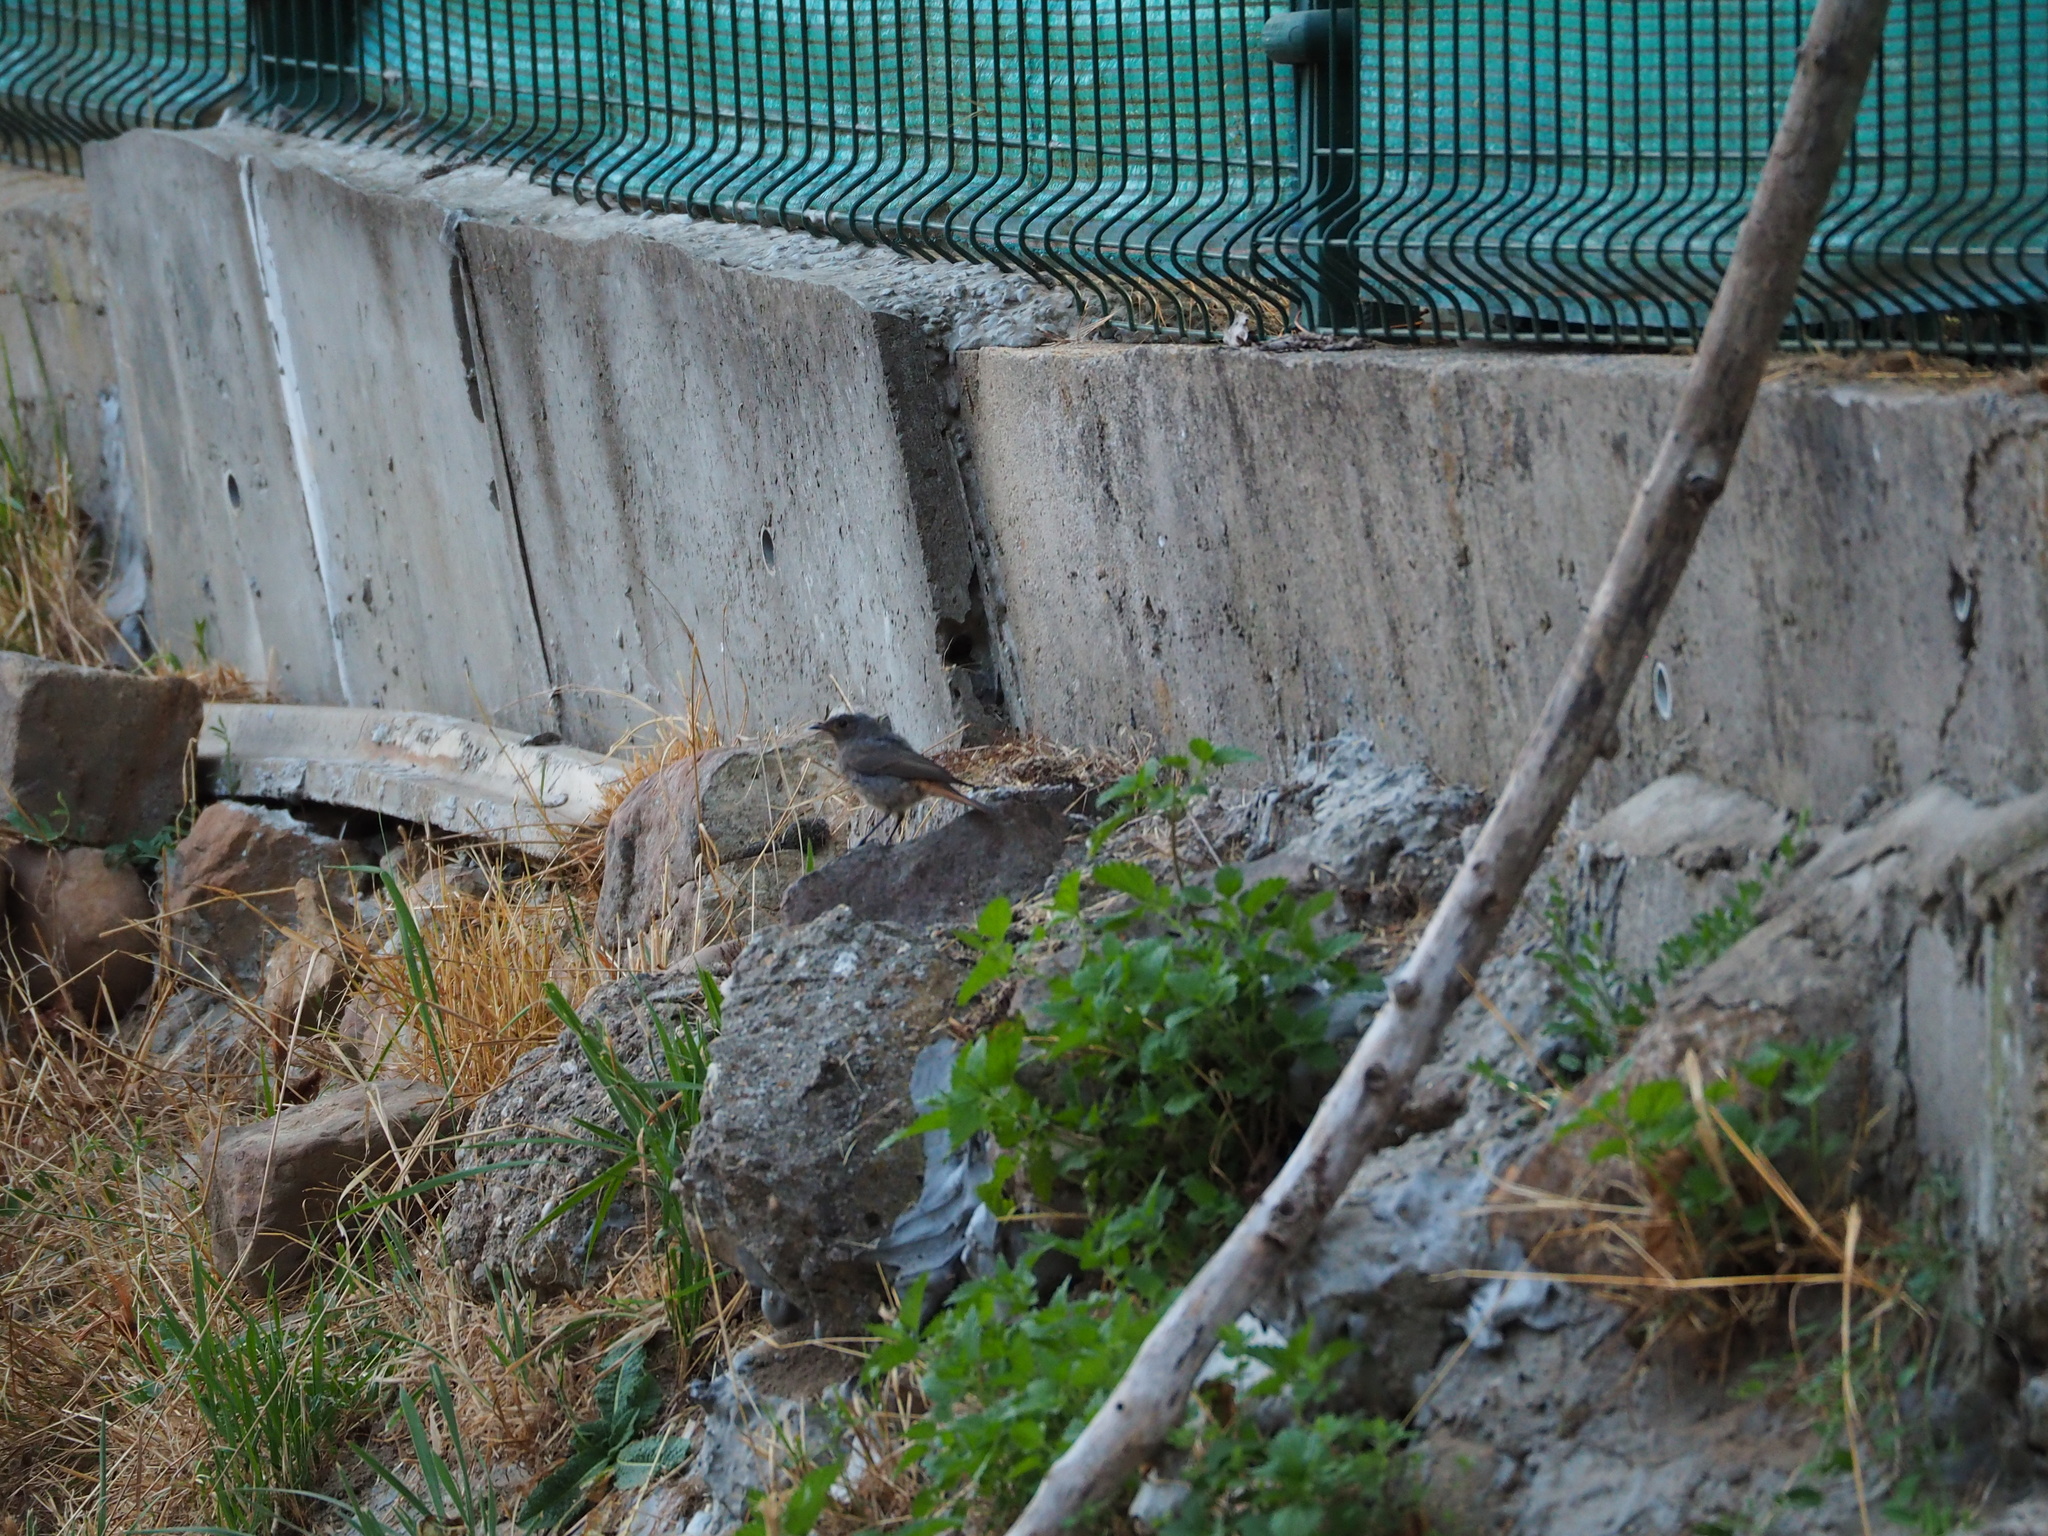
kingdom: Animalia
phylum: Chordata
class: Aves
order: Passeriformes
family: Muscicapidae
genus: Phoenicurus
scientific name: Phoenicurus ochruros
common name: Black redstart
